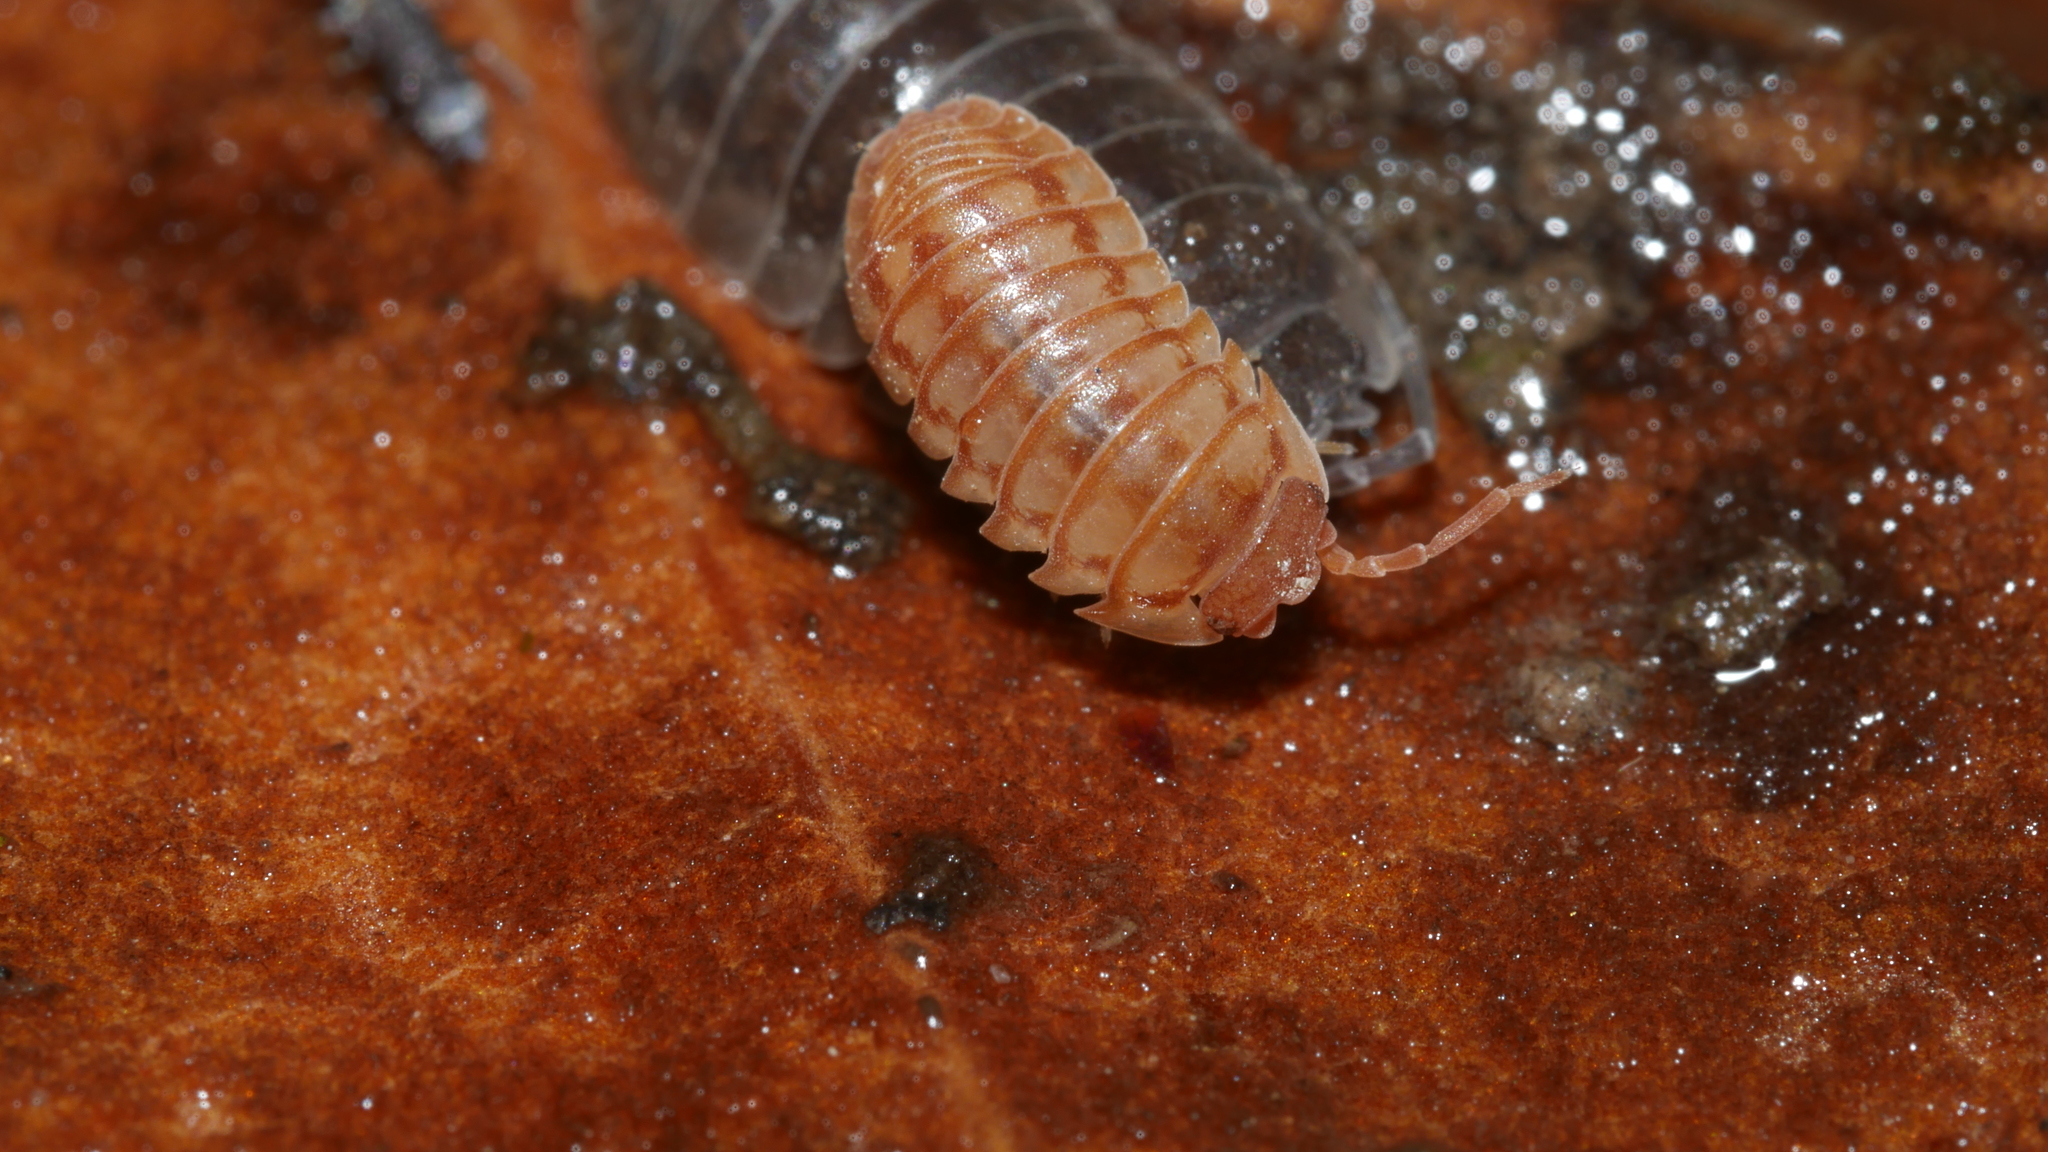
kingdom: Animalia
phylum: Arthropoda
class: Malacostraca
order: Isopoda
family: Armadillidiidae
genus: Armadillidium
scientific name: Armadillidium nasatum
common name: Isopod
